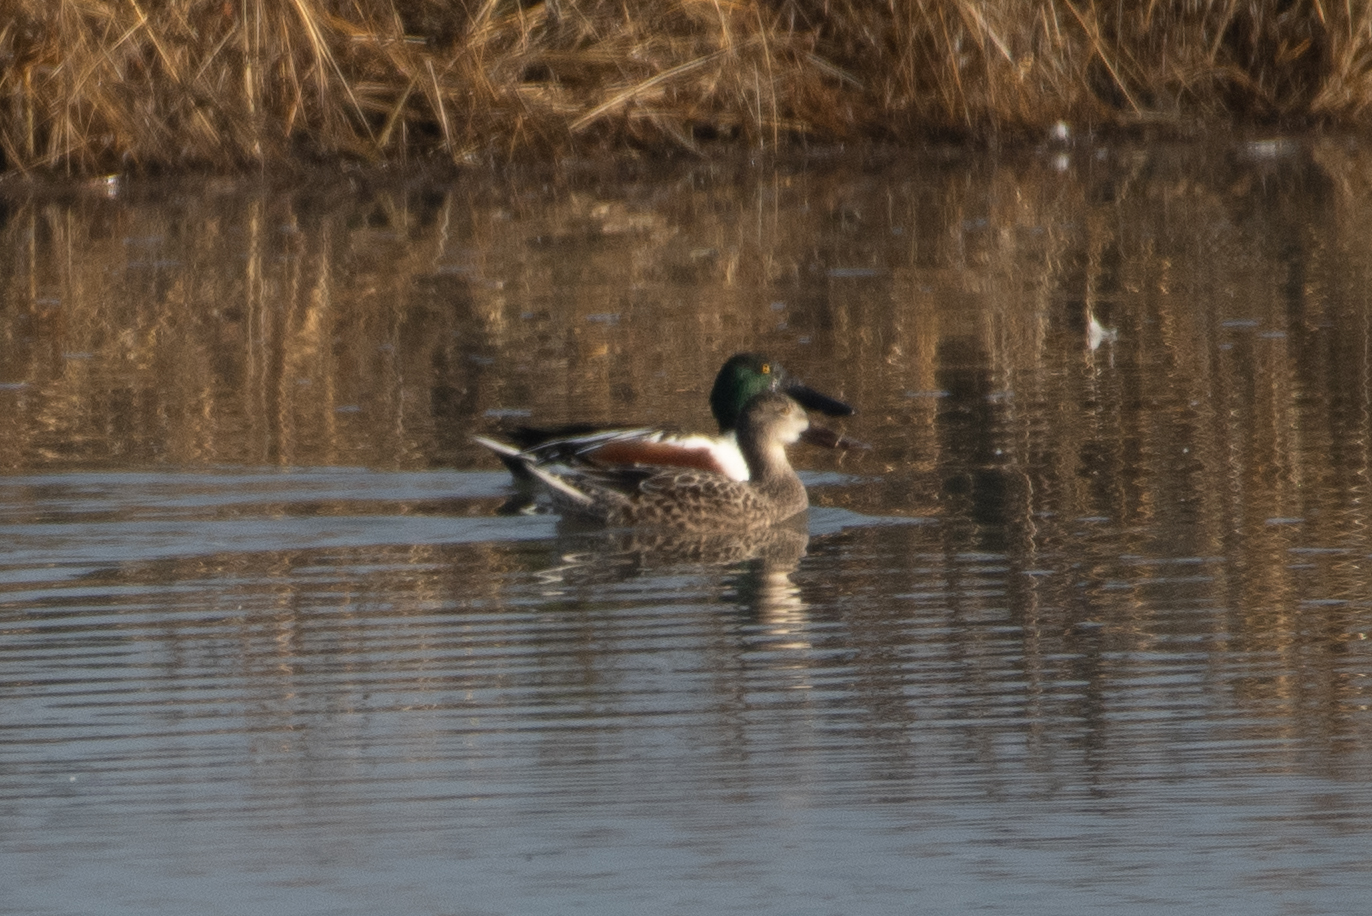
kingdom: Animalia
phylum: Chordata
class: Aves
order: Anseriformes
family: Anatidae
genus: Spatula
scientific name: Spatula clypeata
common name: Northern shoveler
